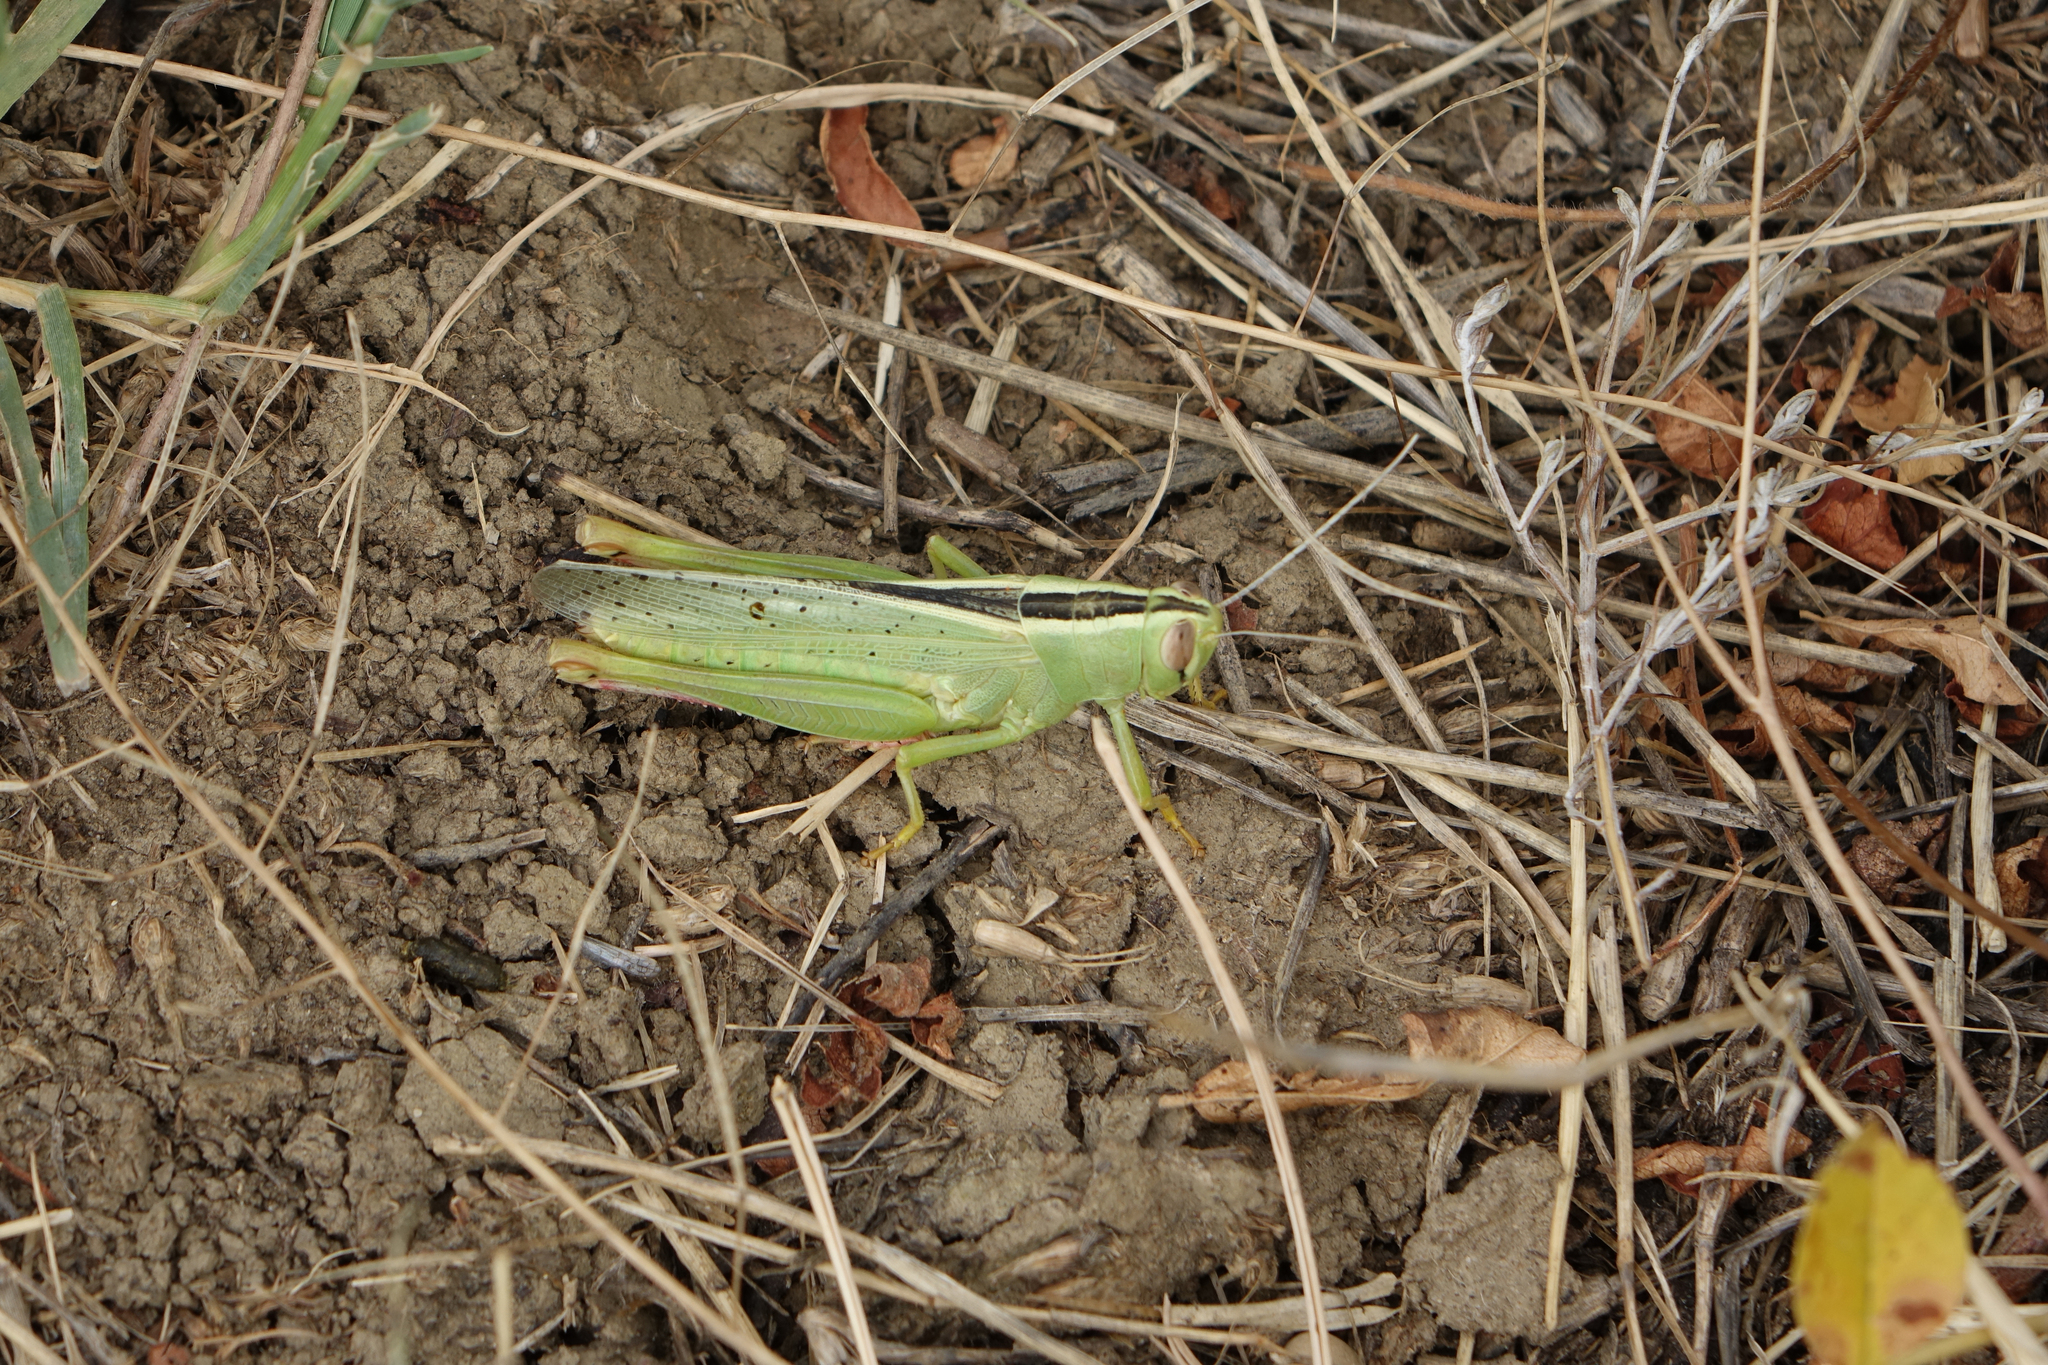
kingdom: Animalia
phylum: Arthropoda
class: Insecta
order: Orthoptera
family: Acrididae
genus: Heteracris
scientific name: Heteracris pterosticha
